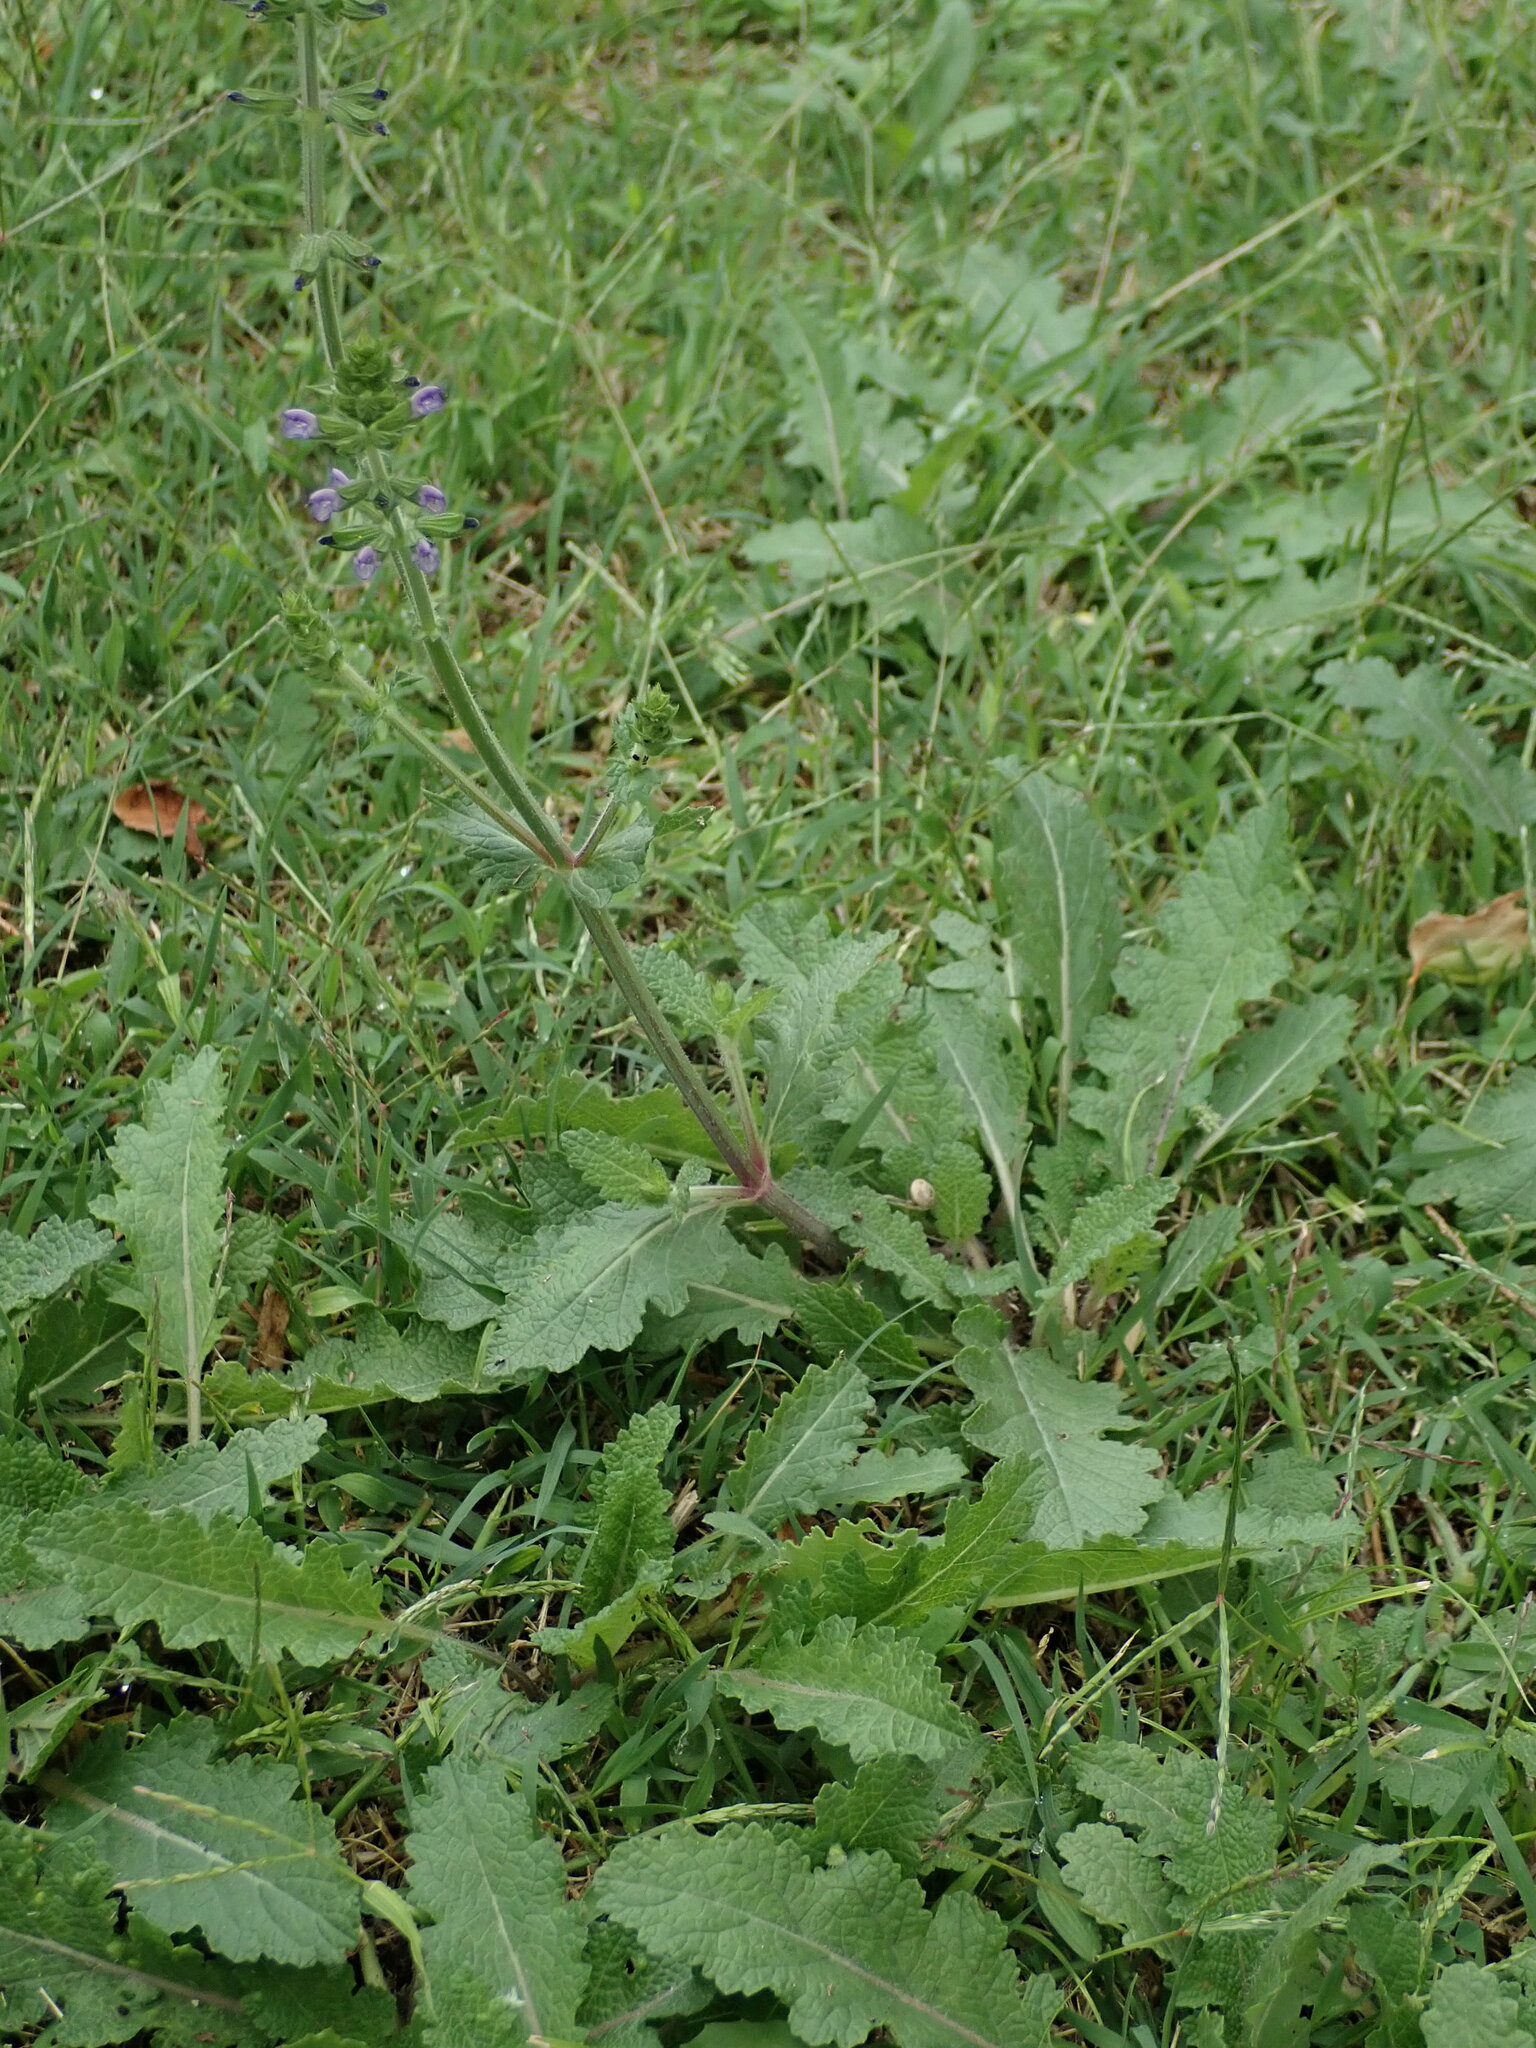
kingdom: Plantae
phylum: Tracheophyta
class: Magnoliopsida
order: Lamiales
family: Lamiaceae
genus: Salvia
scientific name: Salvia verbenaca
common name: Wild clary
